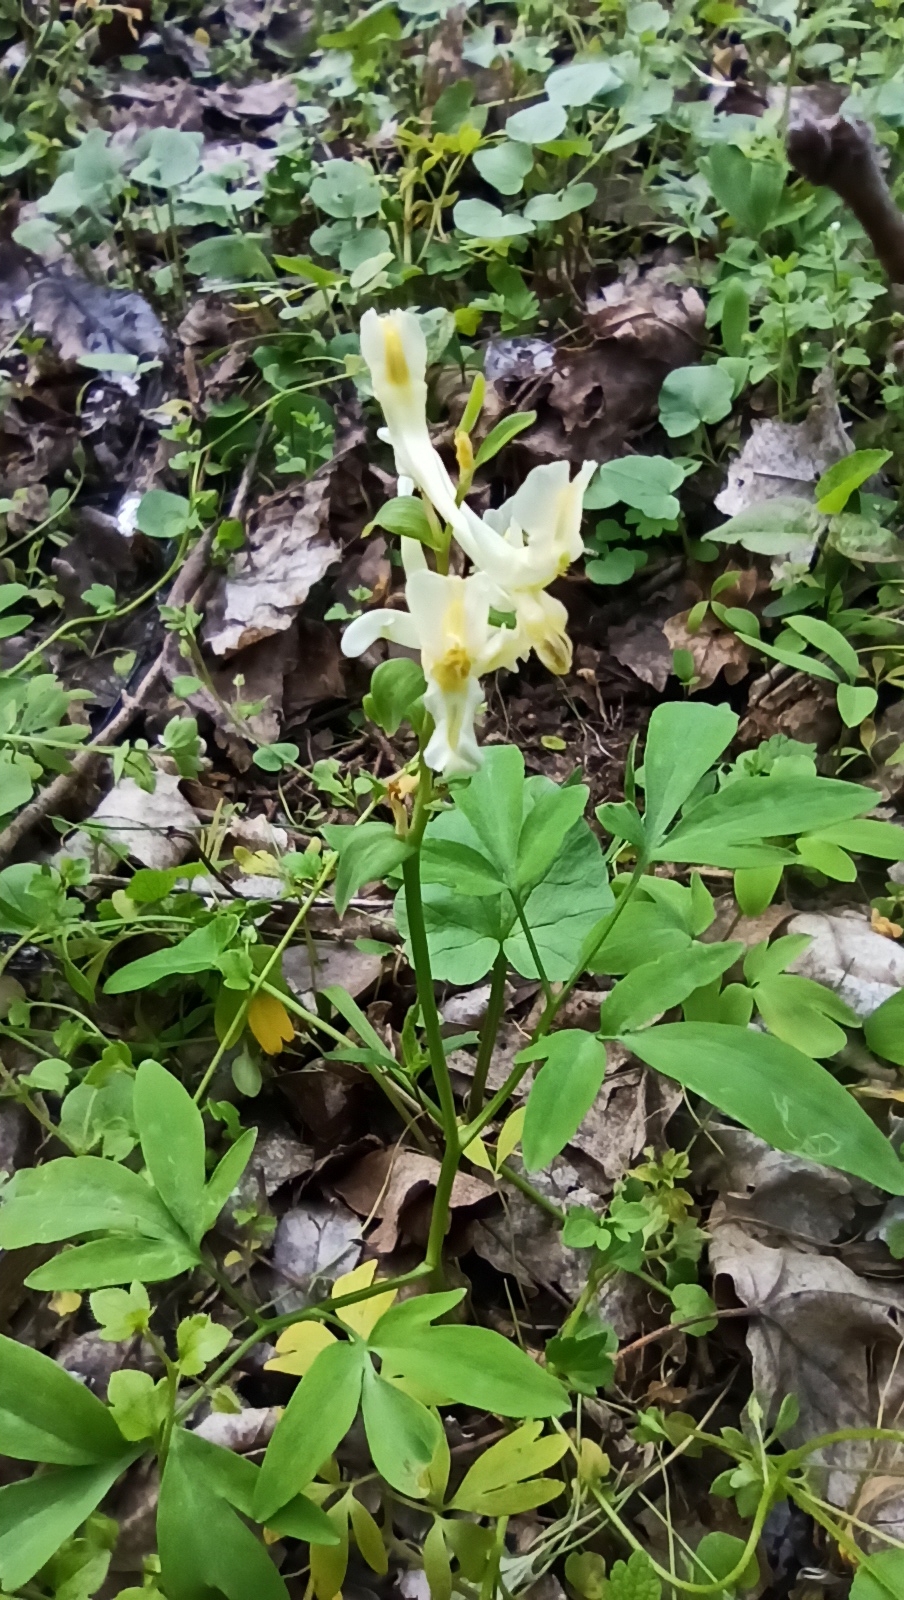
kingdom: Plantae
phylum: Tracheophyta
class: Magnoliopsida
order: Ranunculales
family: Papaveraceae
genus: Corydalis
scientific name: Corydalis cava
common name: Hollowroot
